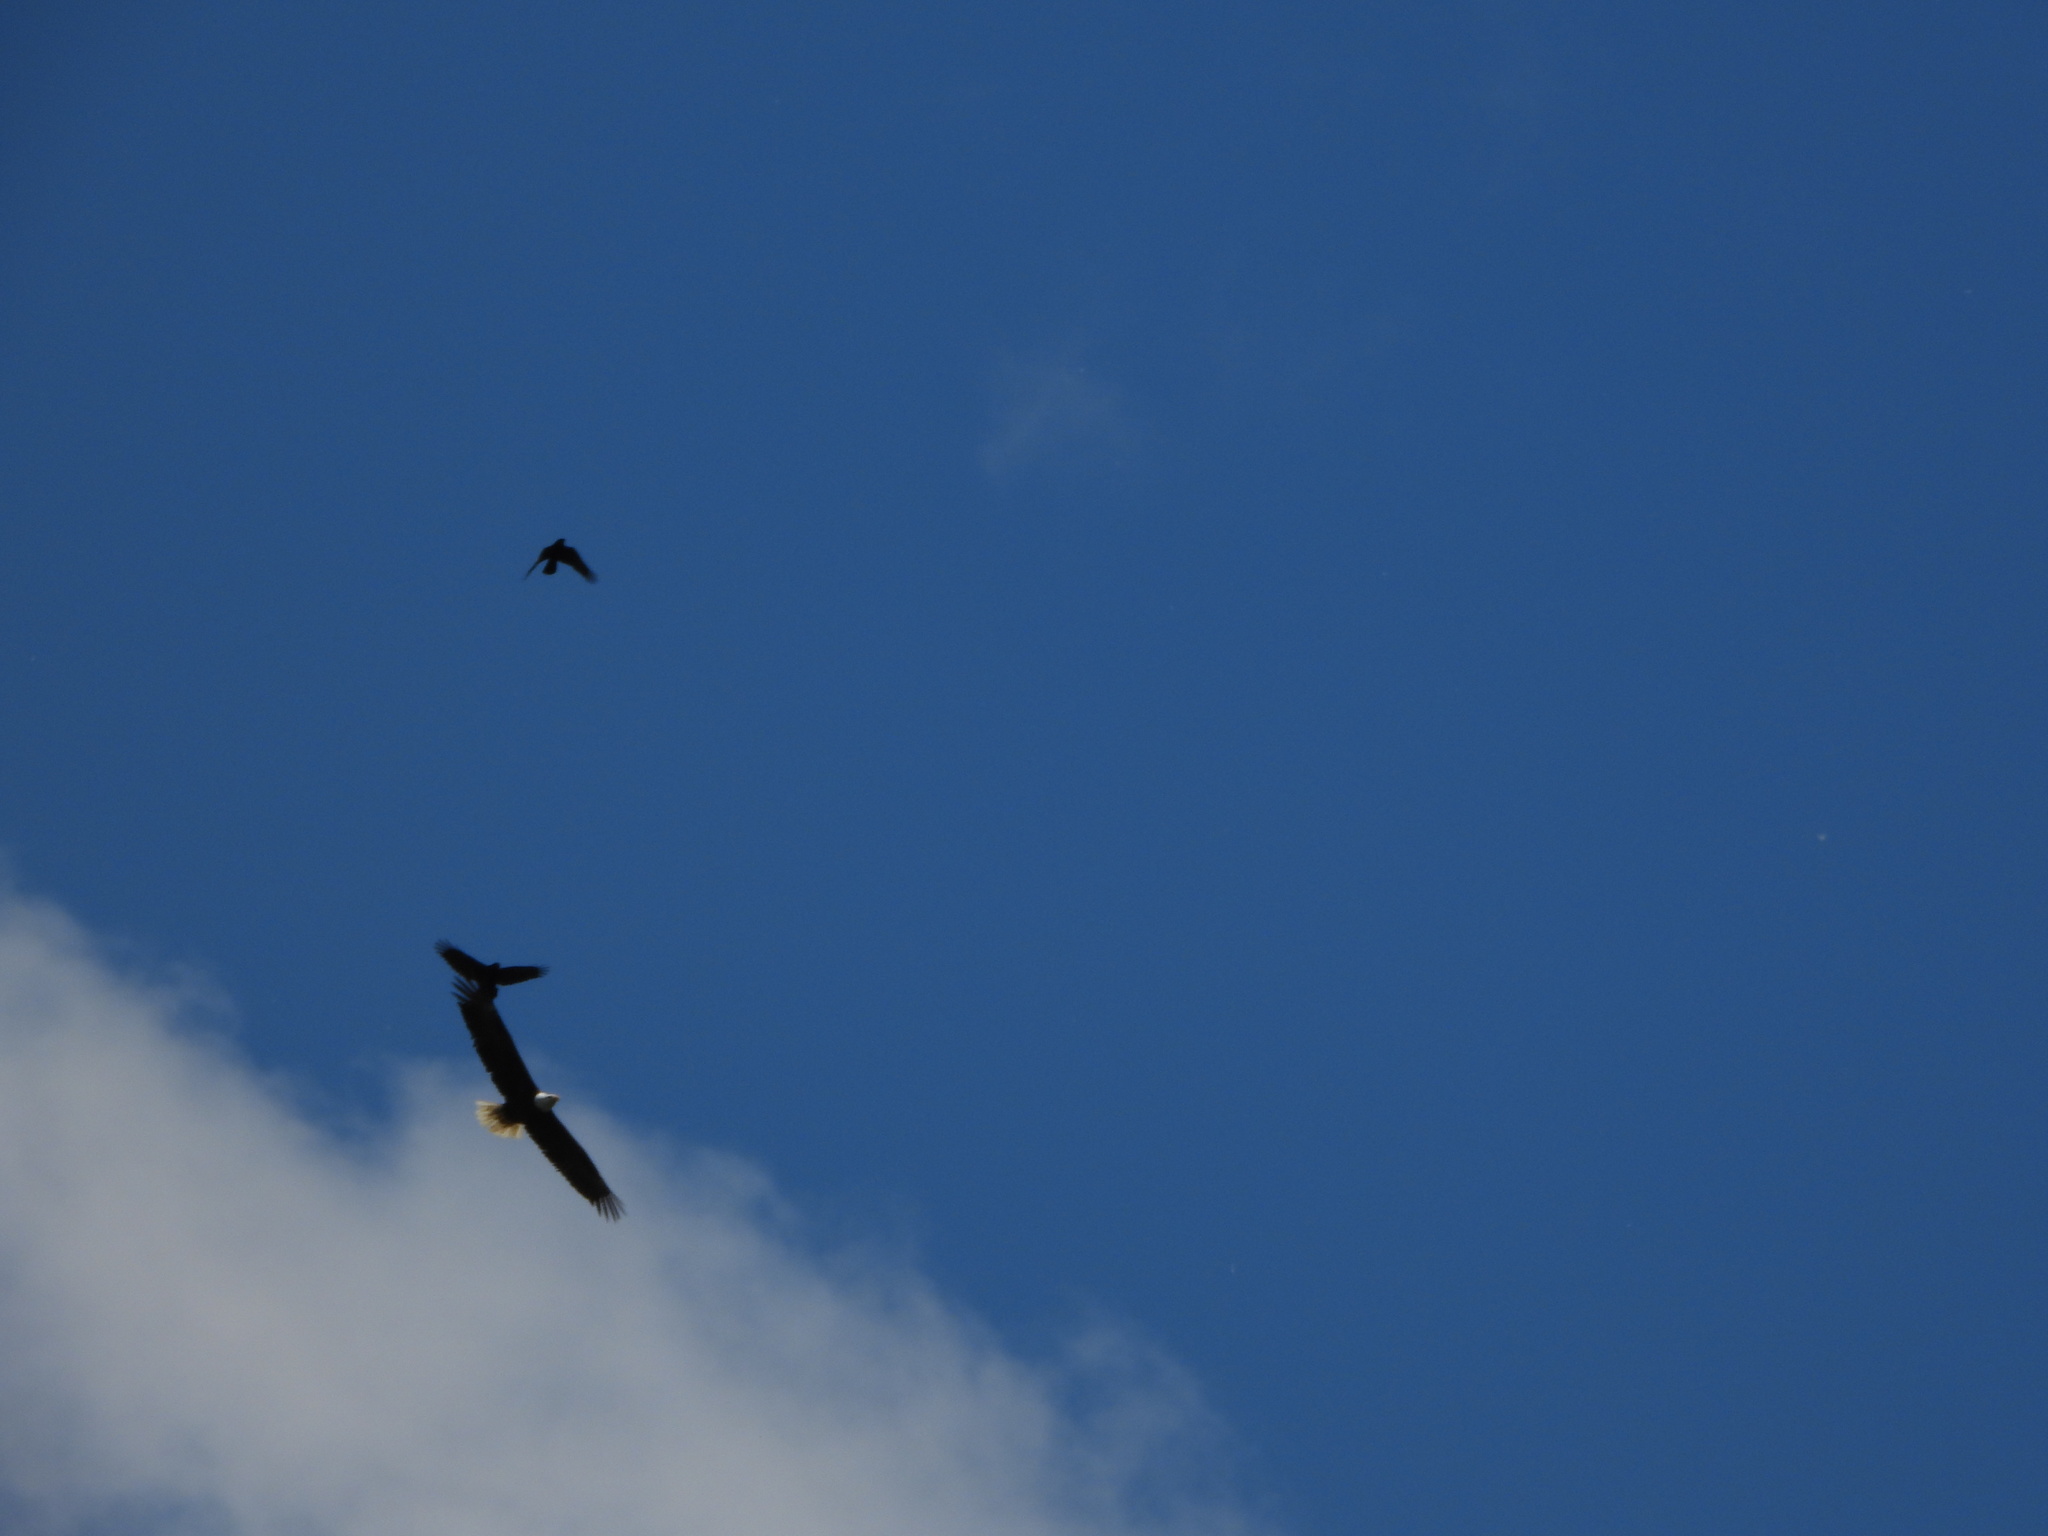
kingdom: Animalia
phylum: Chordata
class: Aves
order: Accipitriformes
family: Accipitridae
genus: Haliaeetus
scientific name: Haliaeetus leucocephalus
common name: Bald eagle
